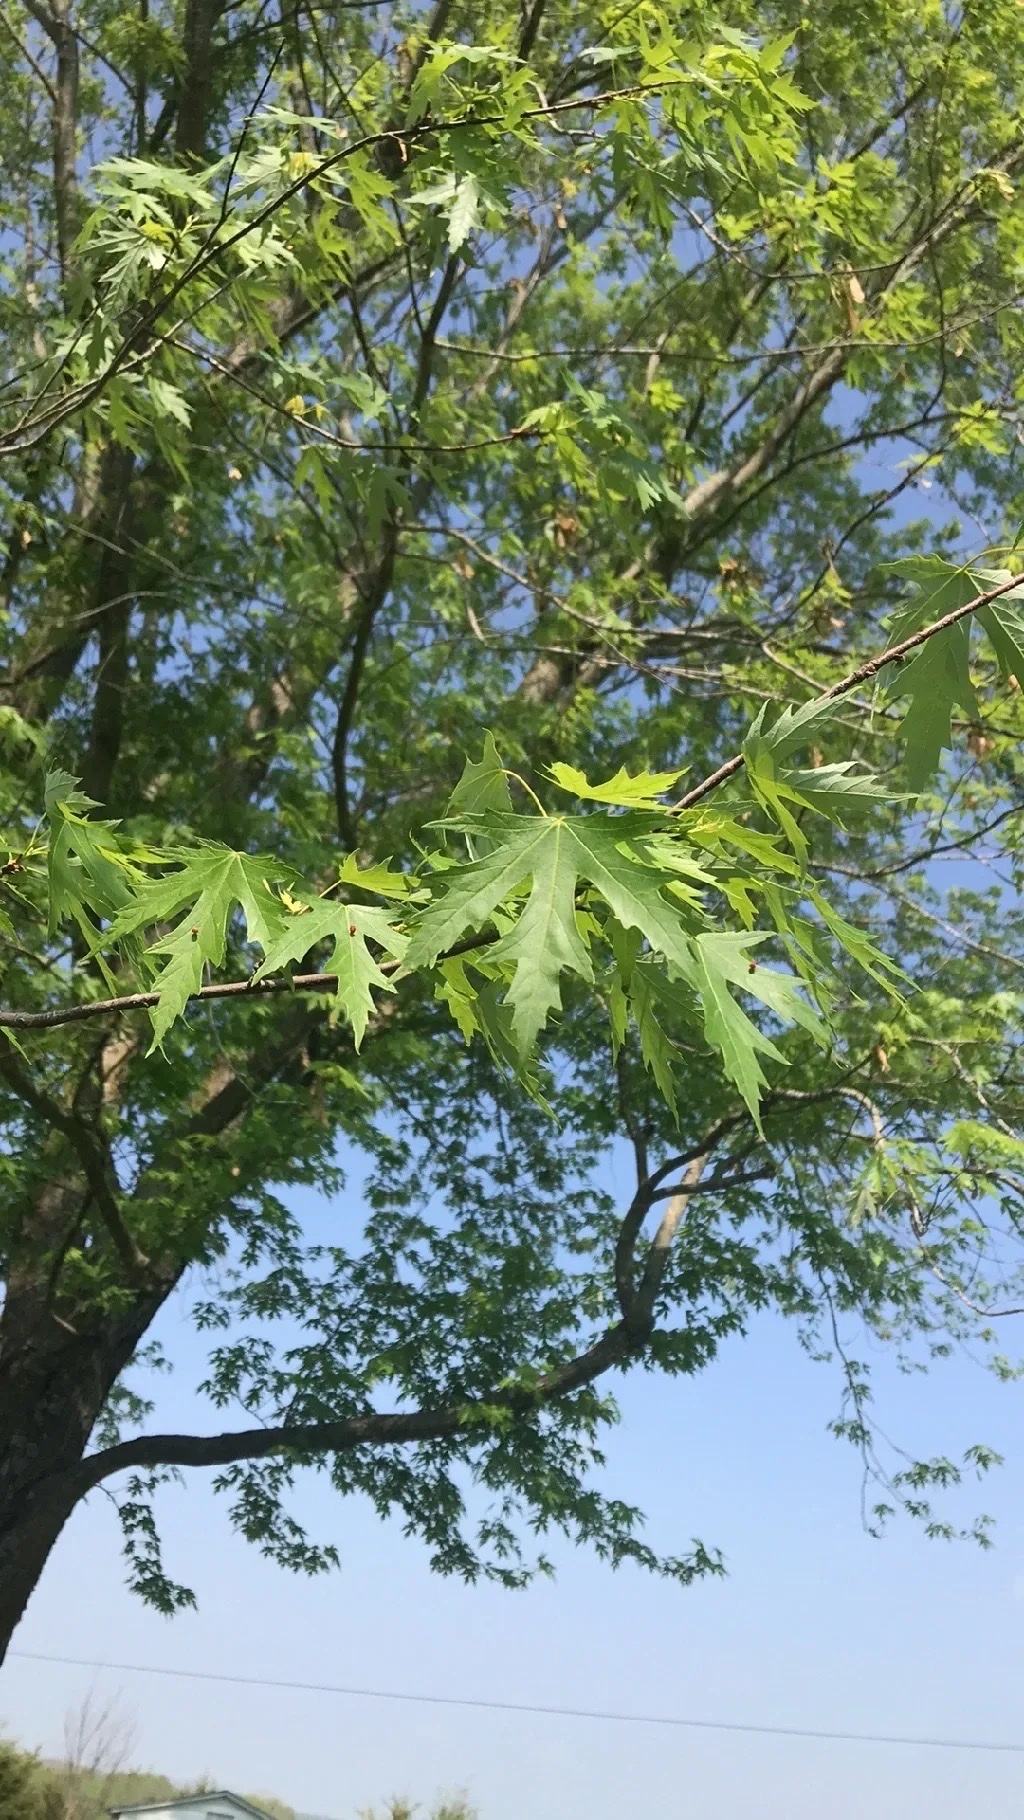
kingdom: Plantae
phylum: Tracheophyta
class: Magnoliopsida
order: Sapindales
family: Sapindaceae
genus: Acer
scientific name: Acer saccharinum
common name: Silver maple
